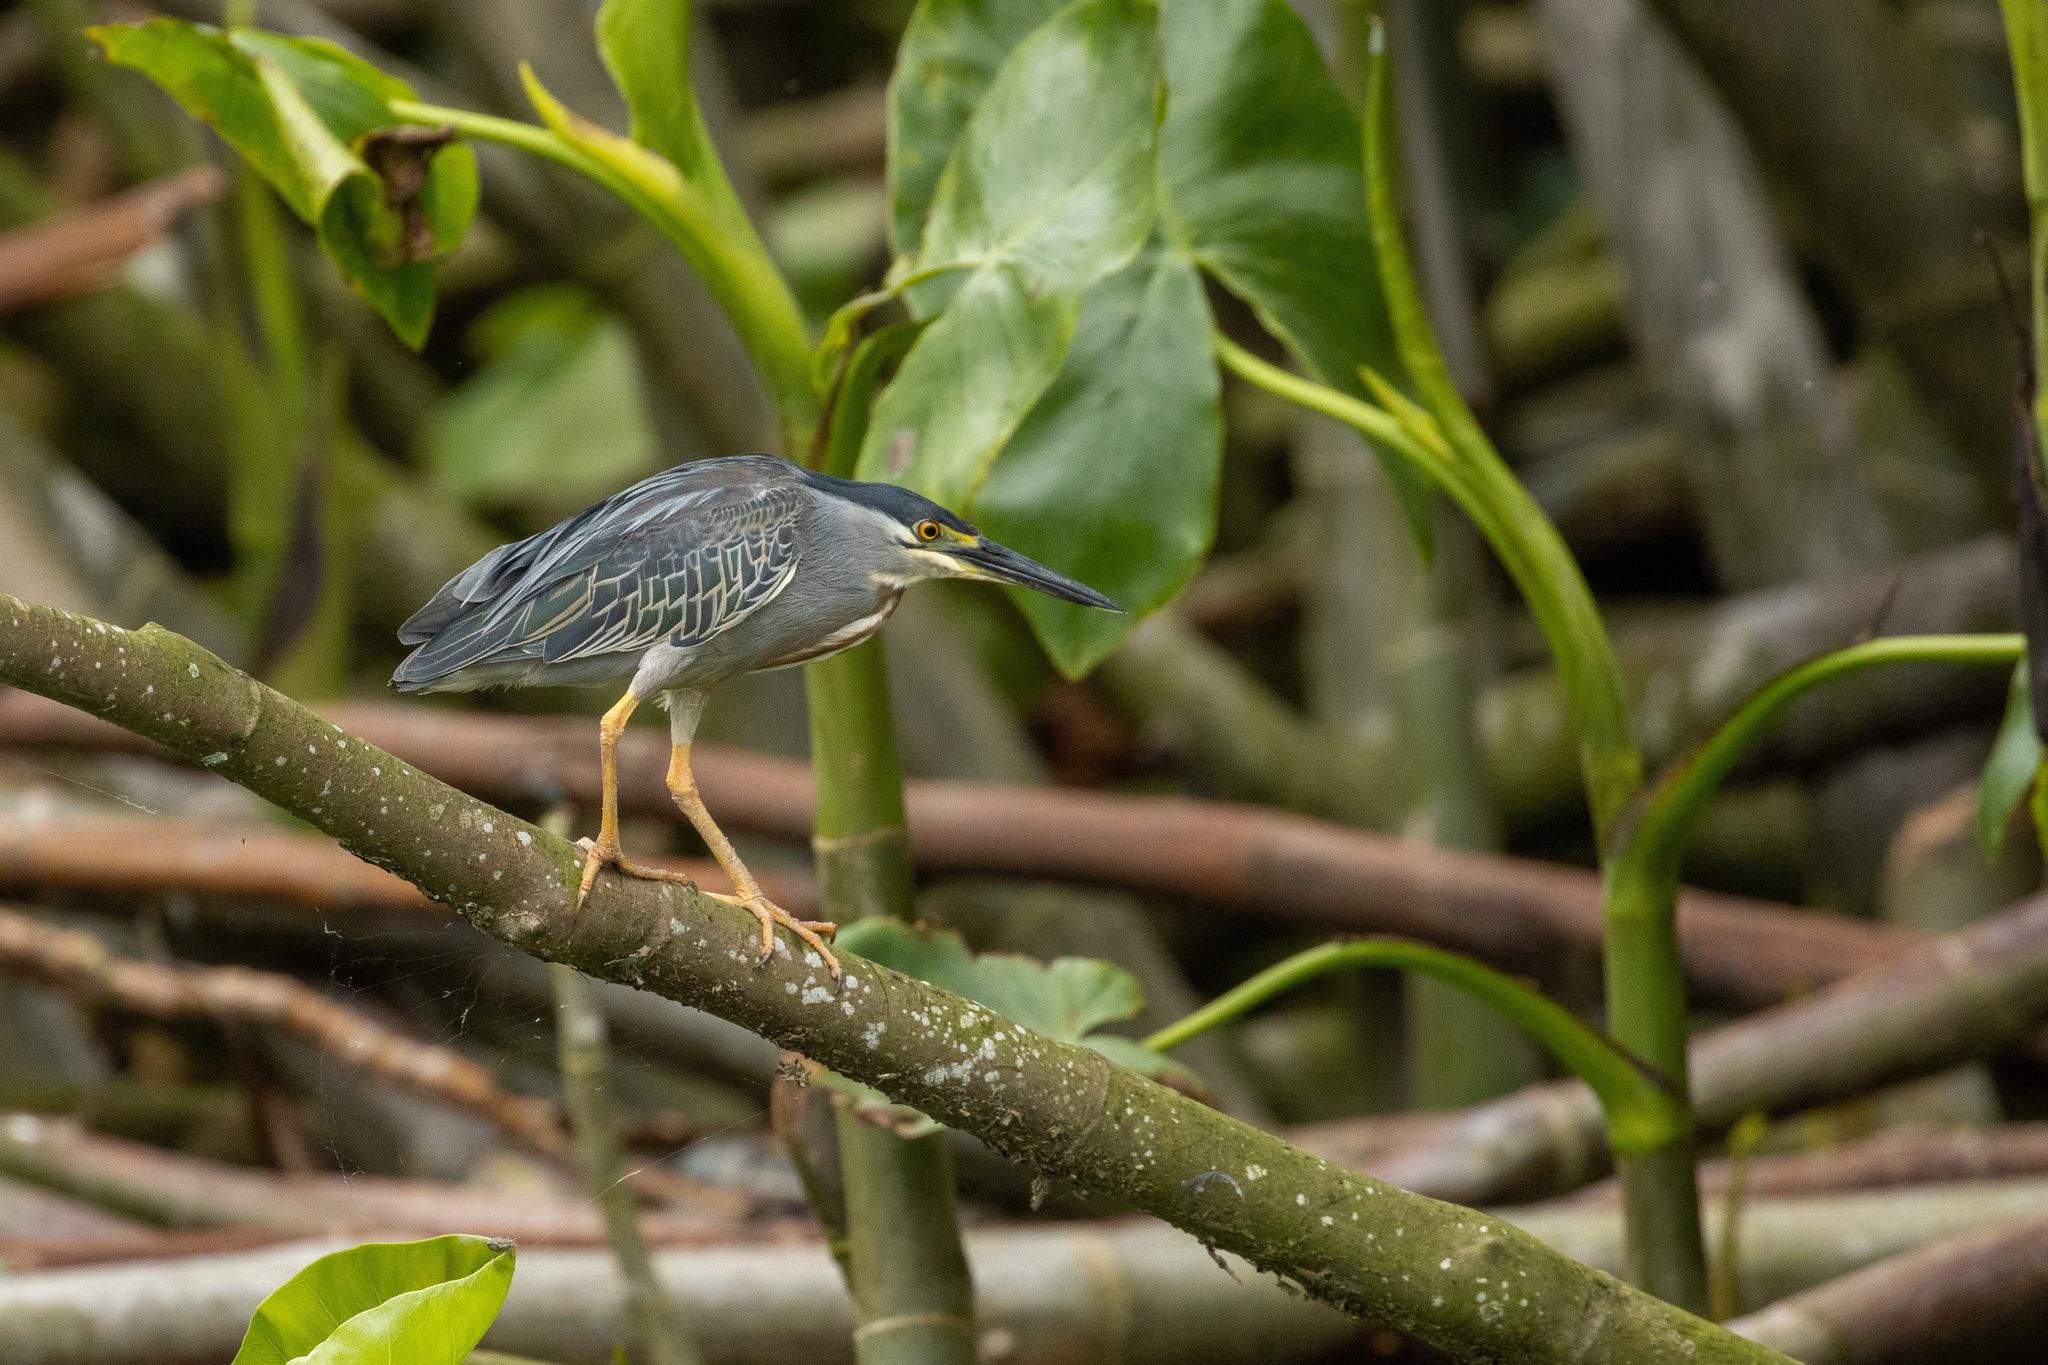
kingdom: Animalia
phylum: Chordata
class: Aves
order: Pelecaniformes
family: Ardeidae
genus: Butorides
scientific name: Butorides striata
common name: Striated heron
